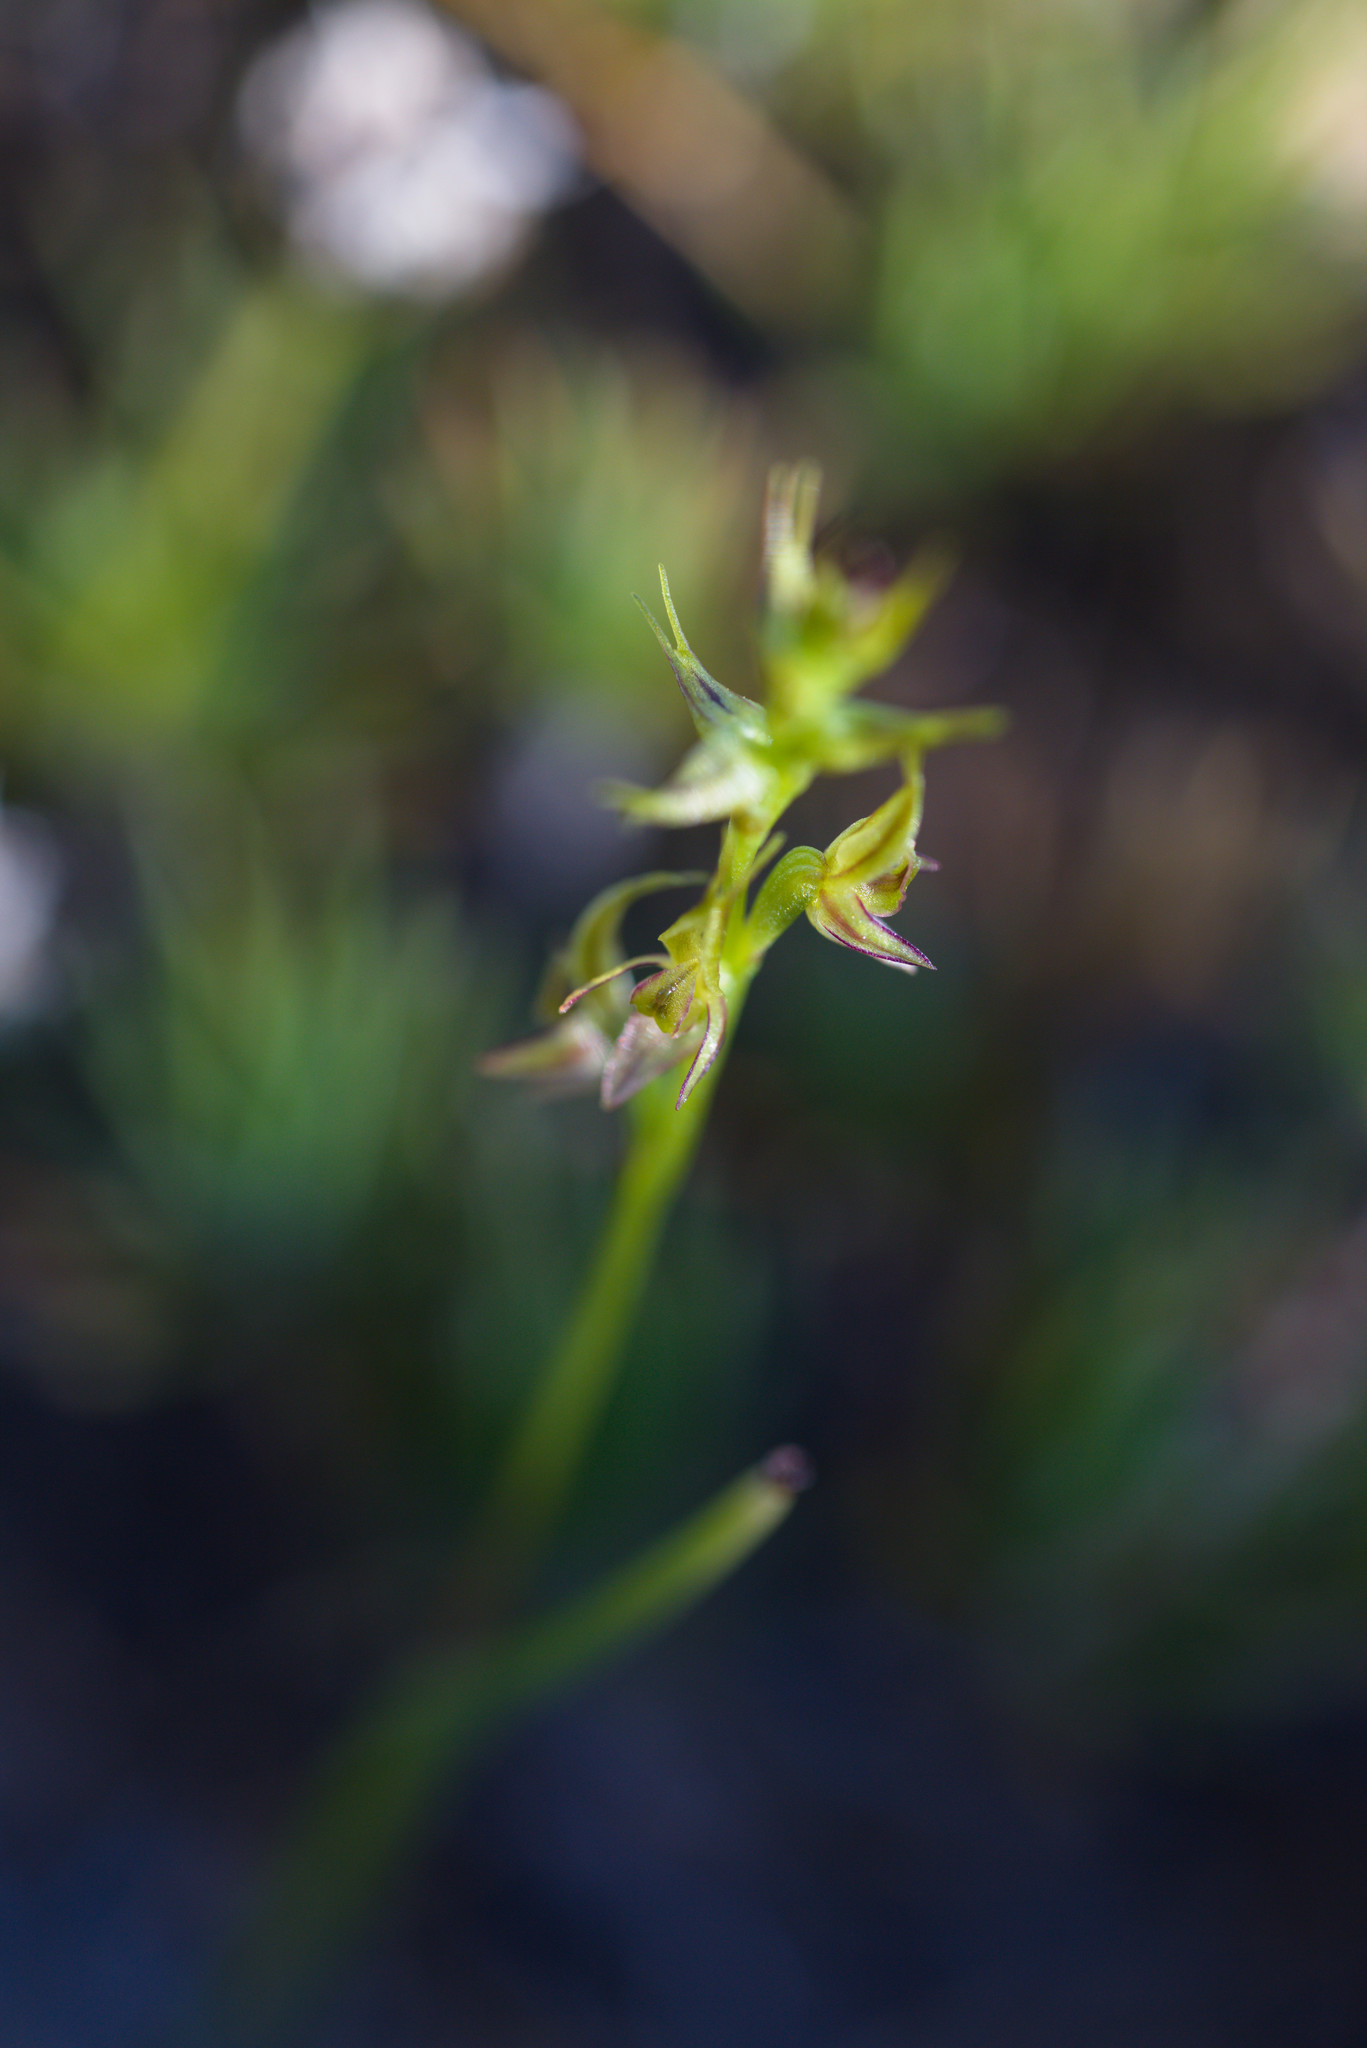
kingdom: Plantae
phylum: Tracheophyta
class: Liliopsida
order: Asparagales
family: Orchidaceae
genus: Prasophyllum
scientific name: Prasophyllum gracile
